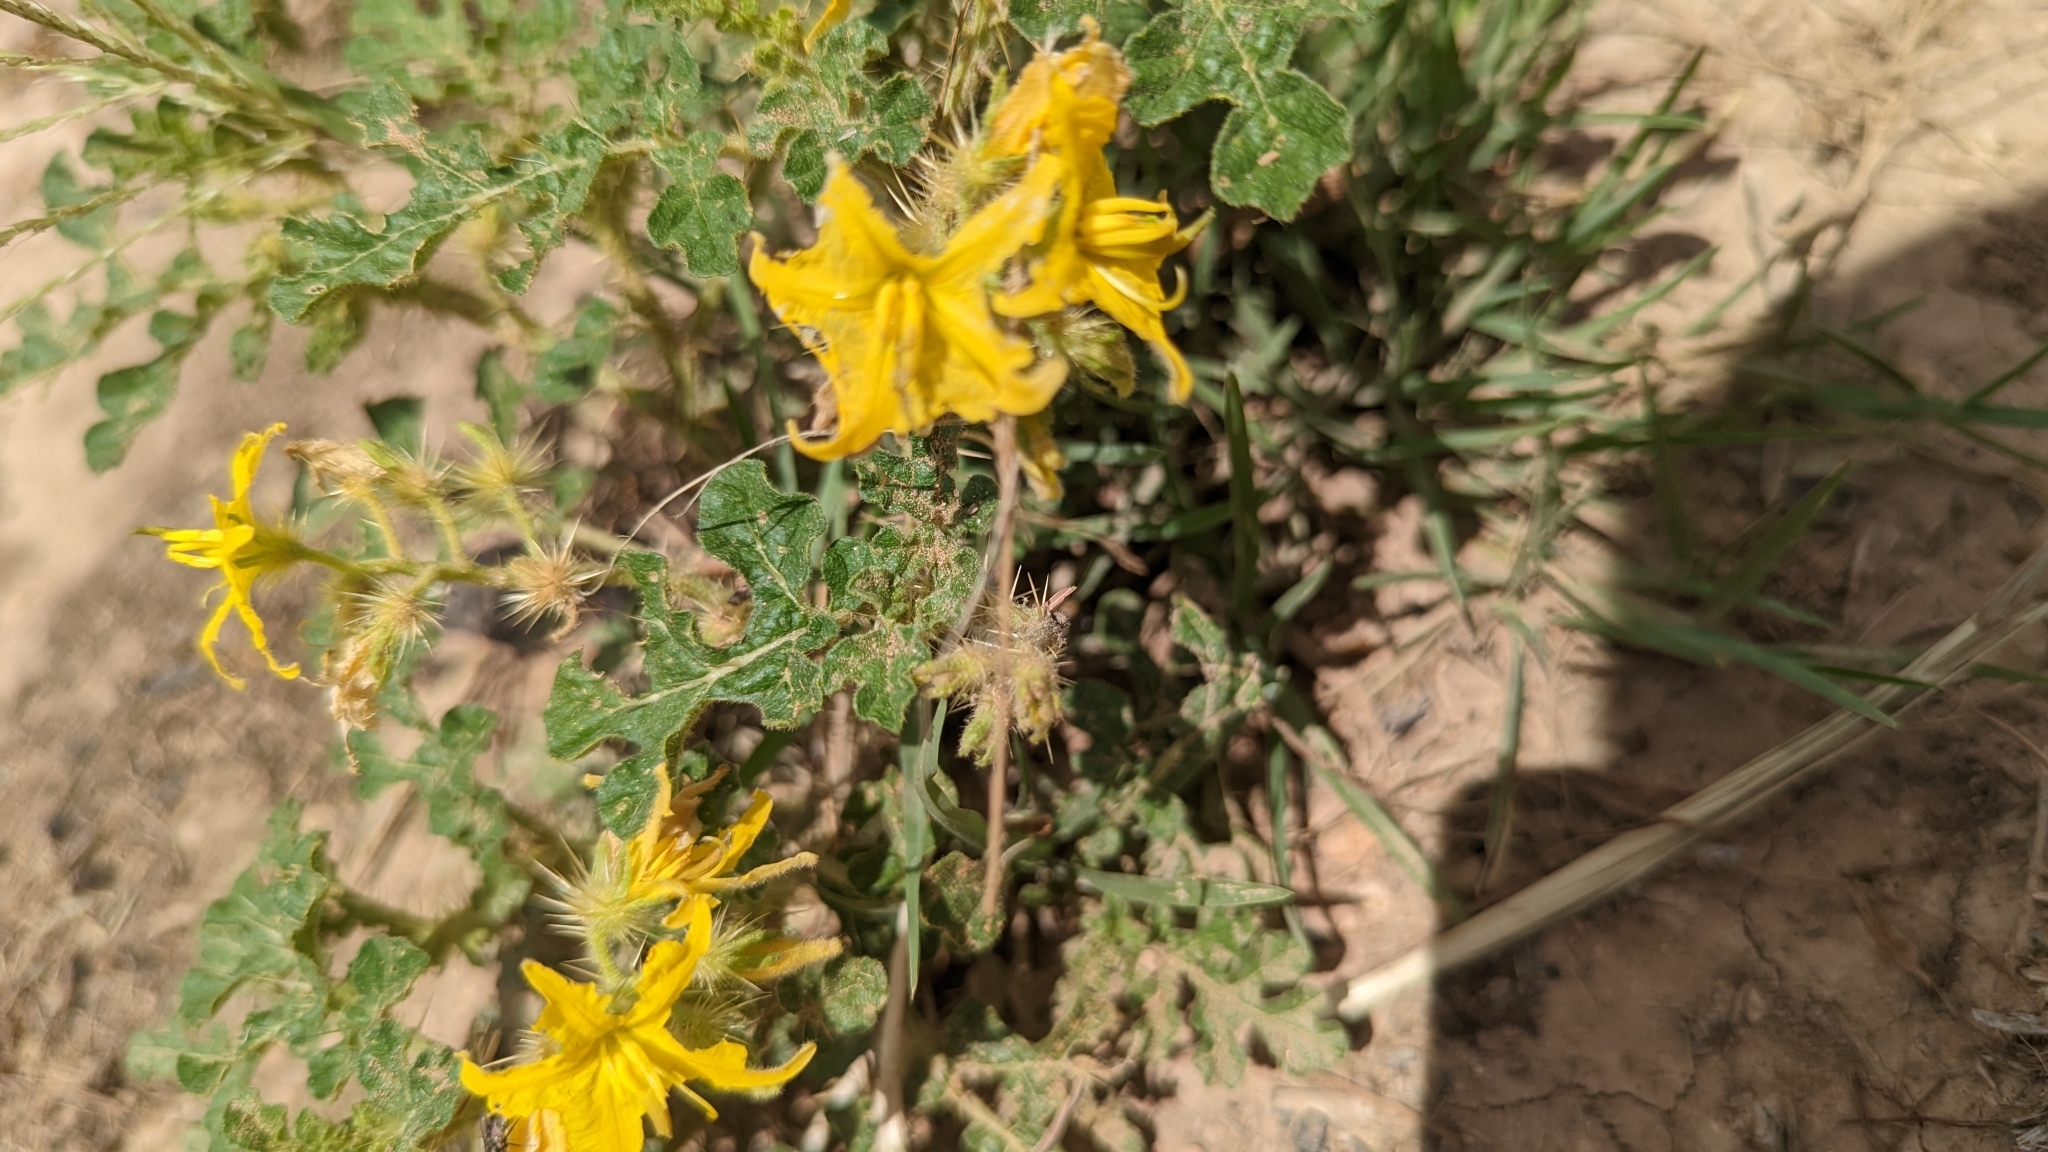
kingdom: Plantae
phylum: Tracheophyta
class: Magnoliopsida
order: Solanales
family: Solanaceae
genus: Solanum
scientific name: Solanum angustifolium
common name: Buffalobur nightshade
